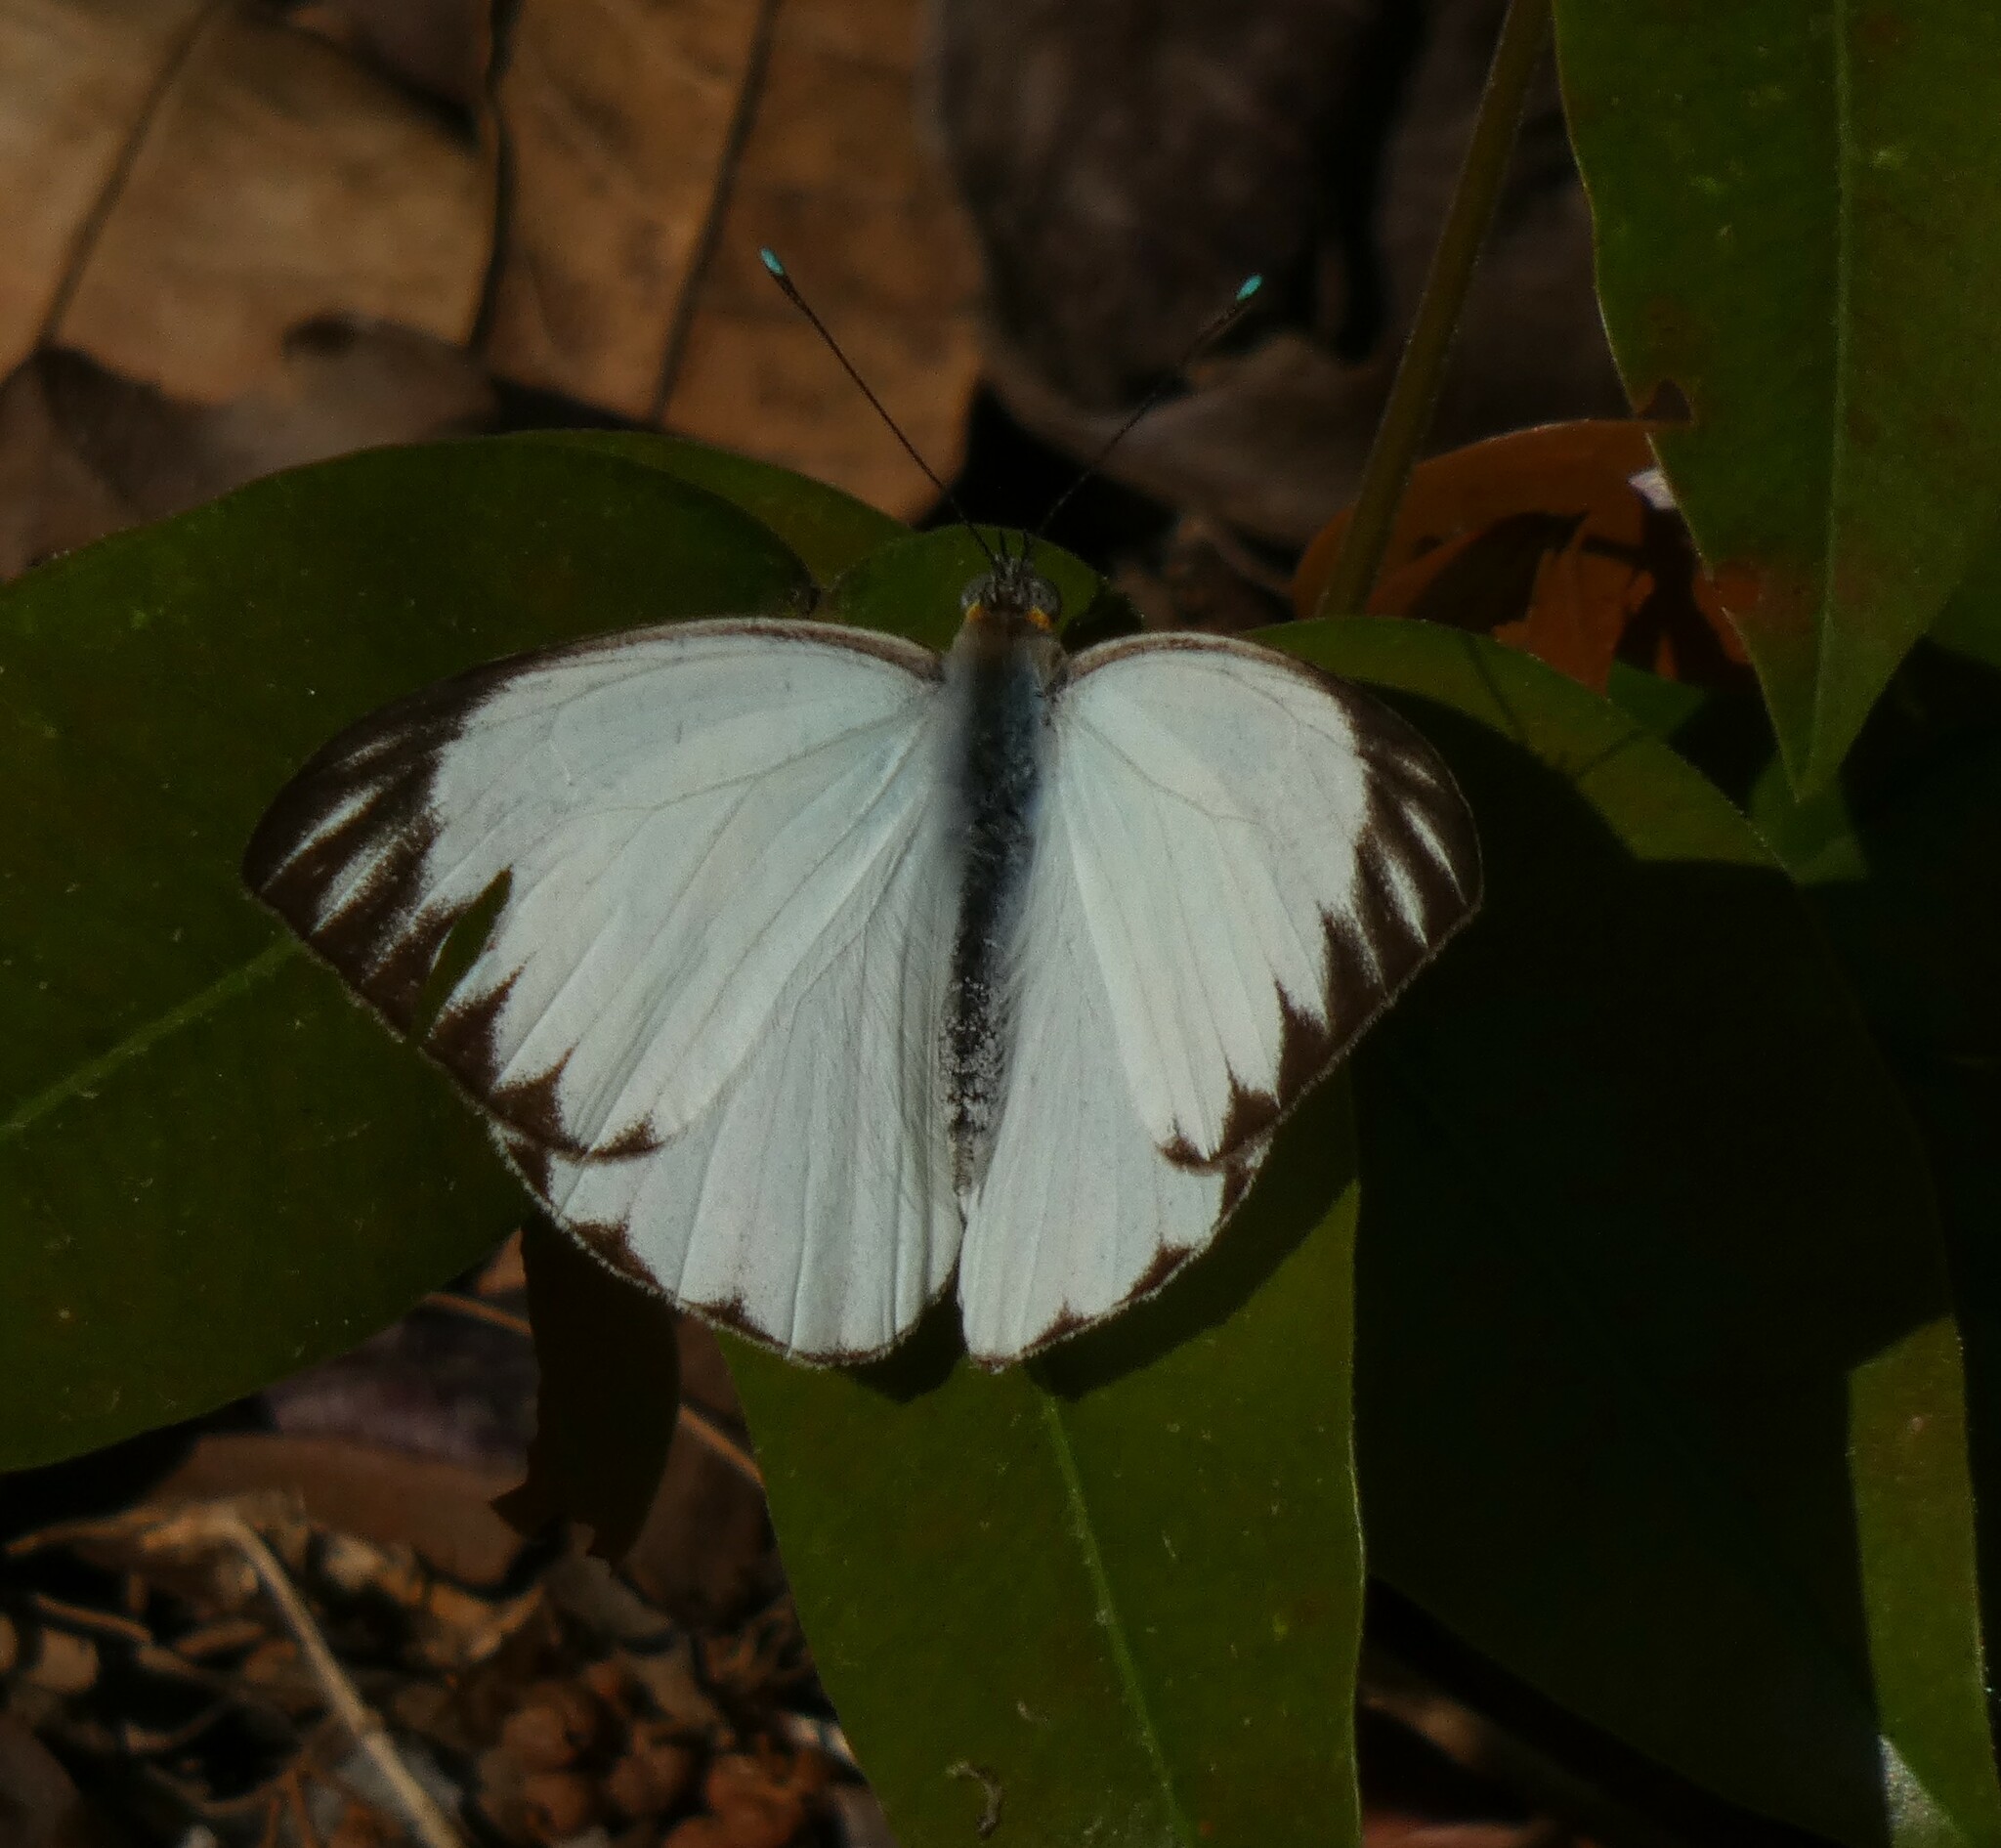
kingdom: Animalia
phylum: Arthropoda
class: Insecta
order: Lepidoptera
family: Pieridae
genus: Ascia
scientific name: Ascia monuste
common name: Great southern white
